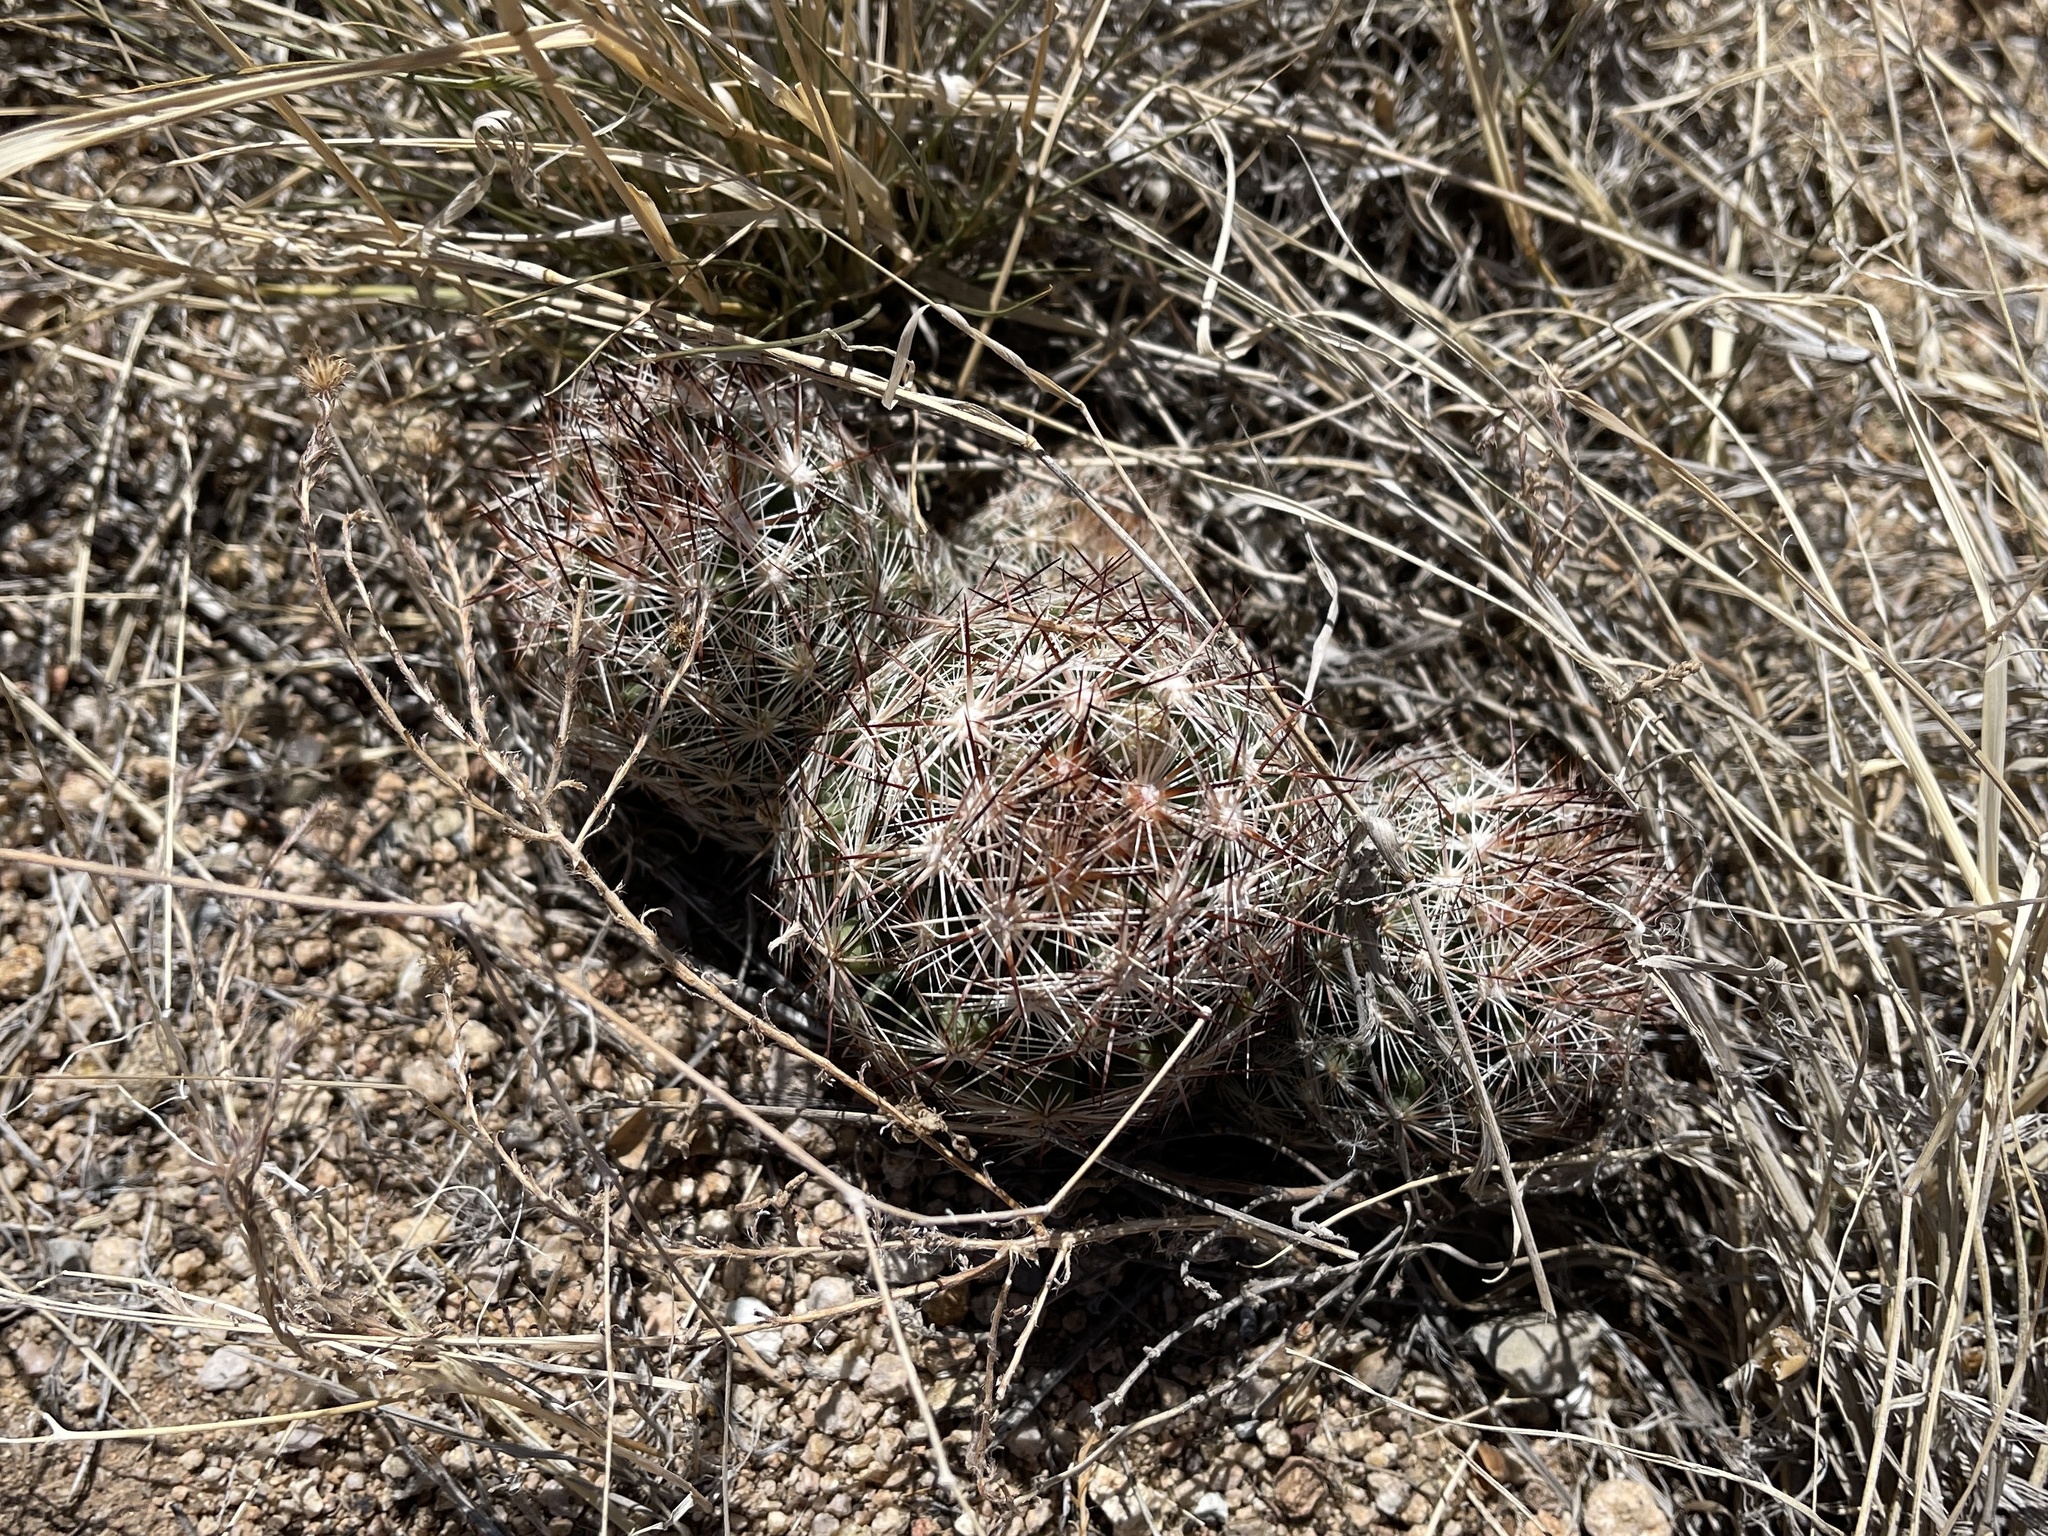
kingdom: Plantae
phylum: Tracheophyta
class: Magnoliopsida
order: Caryophyllales
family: Cactaceae
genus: Pelecyphora
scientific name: Pelecyphora vivipara
